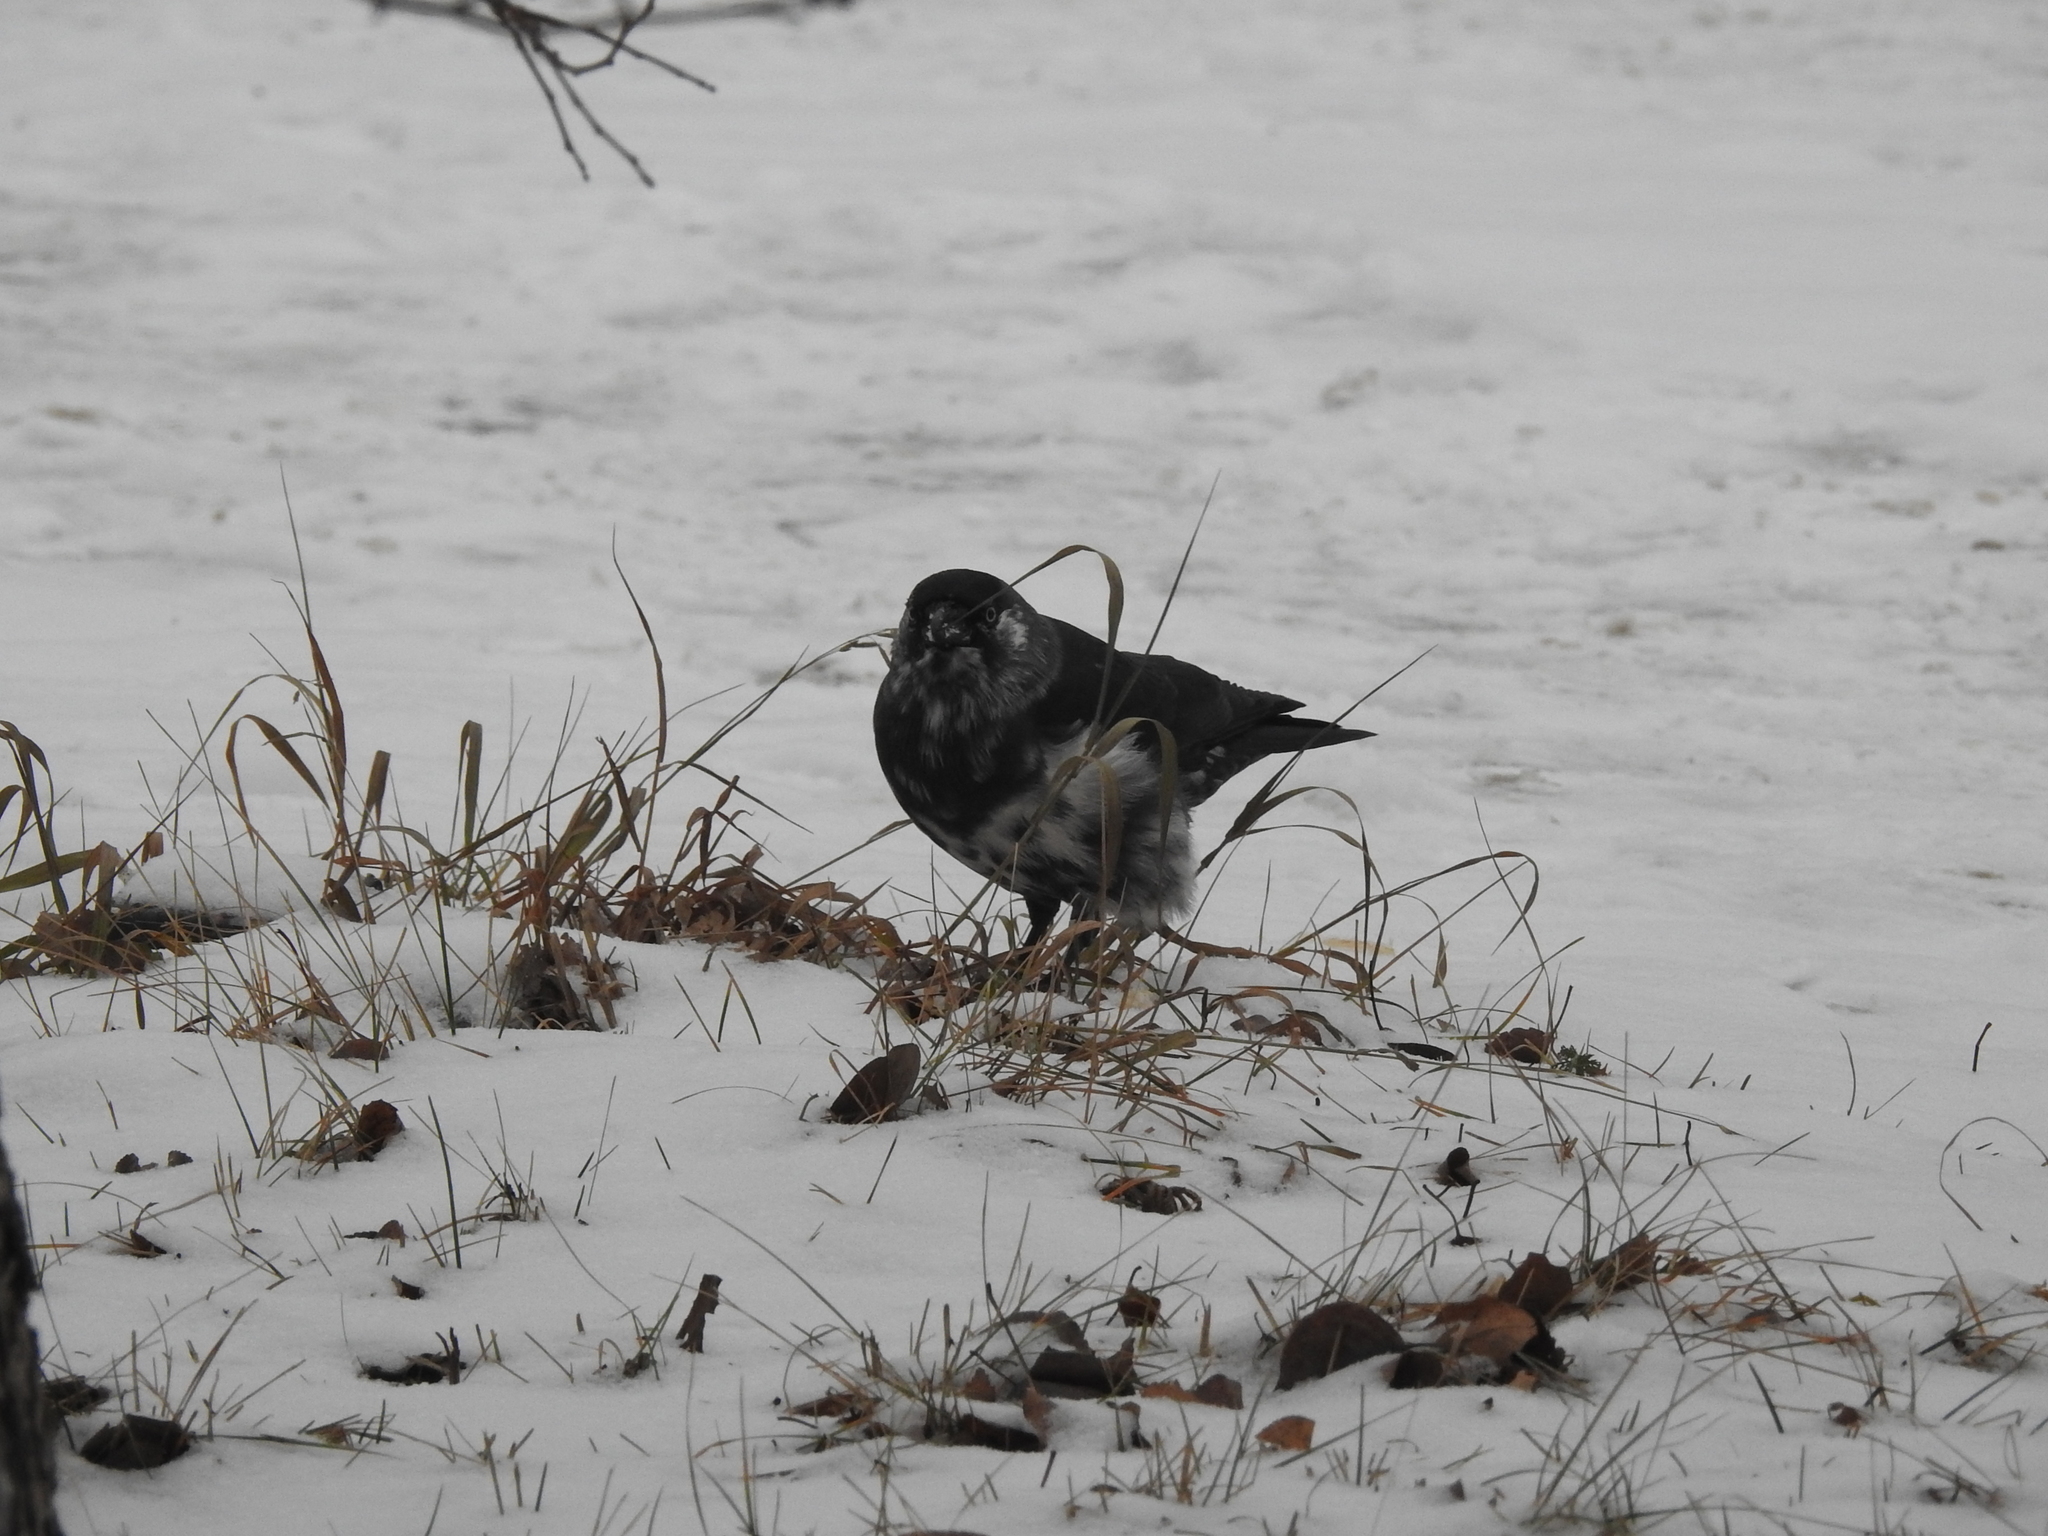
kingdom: Animalia
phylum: Chordata
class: Aves
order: Passeriformes
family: Corvidae
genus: Coloeus
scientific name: Coloeus monedula
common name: Western jackdaw
